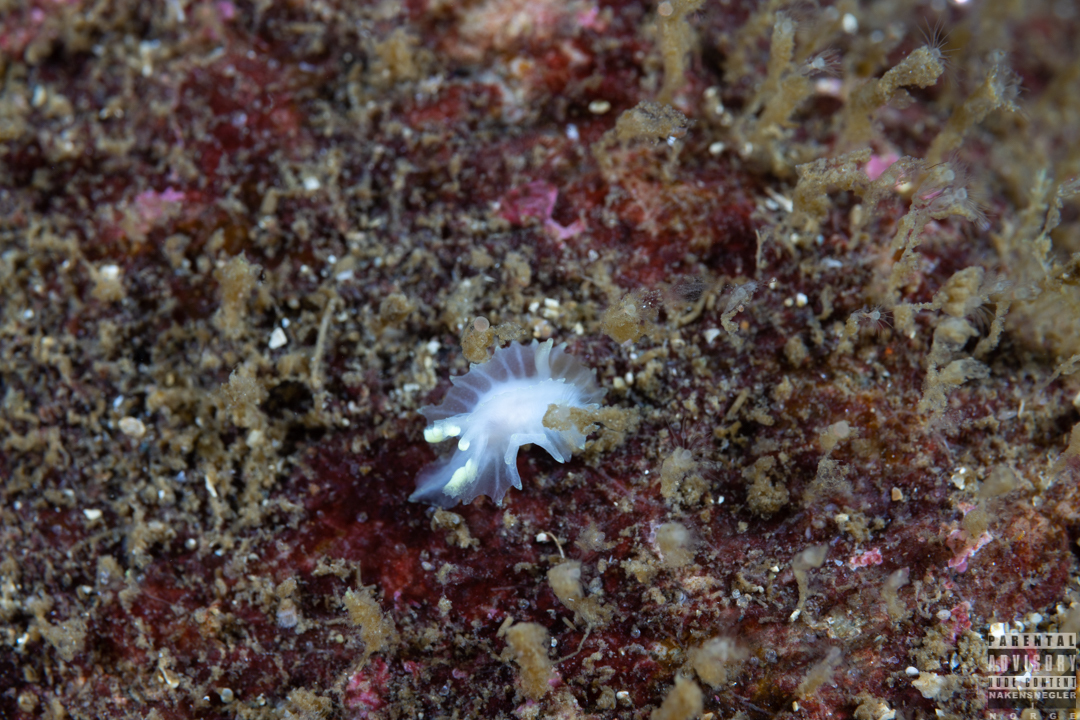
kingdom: Animalia
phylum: Mollusca
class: Gastropoda
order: Nudibranchia
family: Goniodorididae
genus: Lophodoris
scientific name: Lophodoris danielsseni
